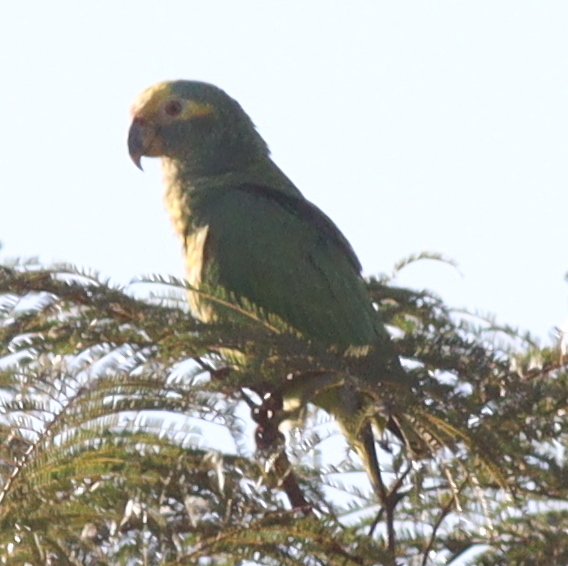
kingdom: Animalia
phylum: Chordata
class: Aves
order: Psittaciformes
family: Psittacidae
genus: Amazona
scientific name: Amazona xanthops
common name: Yellow-faced amazon
